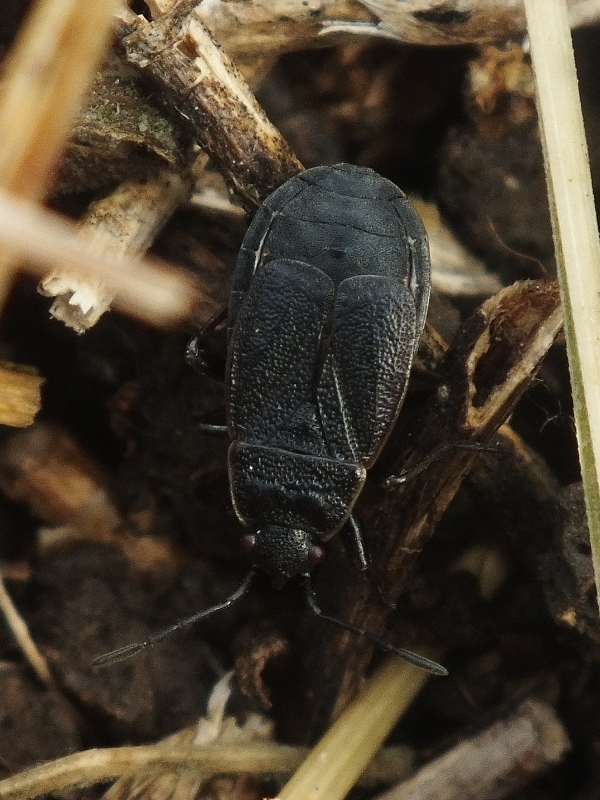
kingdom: Animalia
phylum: Arthropoda
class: Insecta
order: Hemiptera
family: Pyrrhocoridae
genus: Pyrrhocoris
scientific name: Pyrrhocoris marginatus
